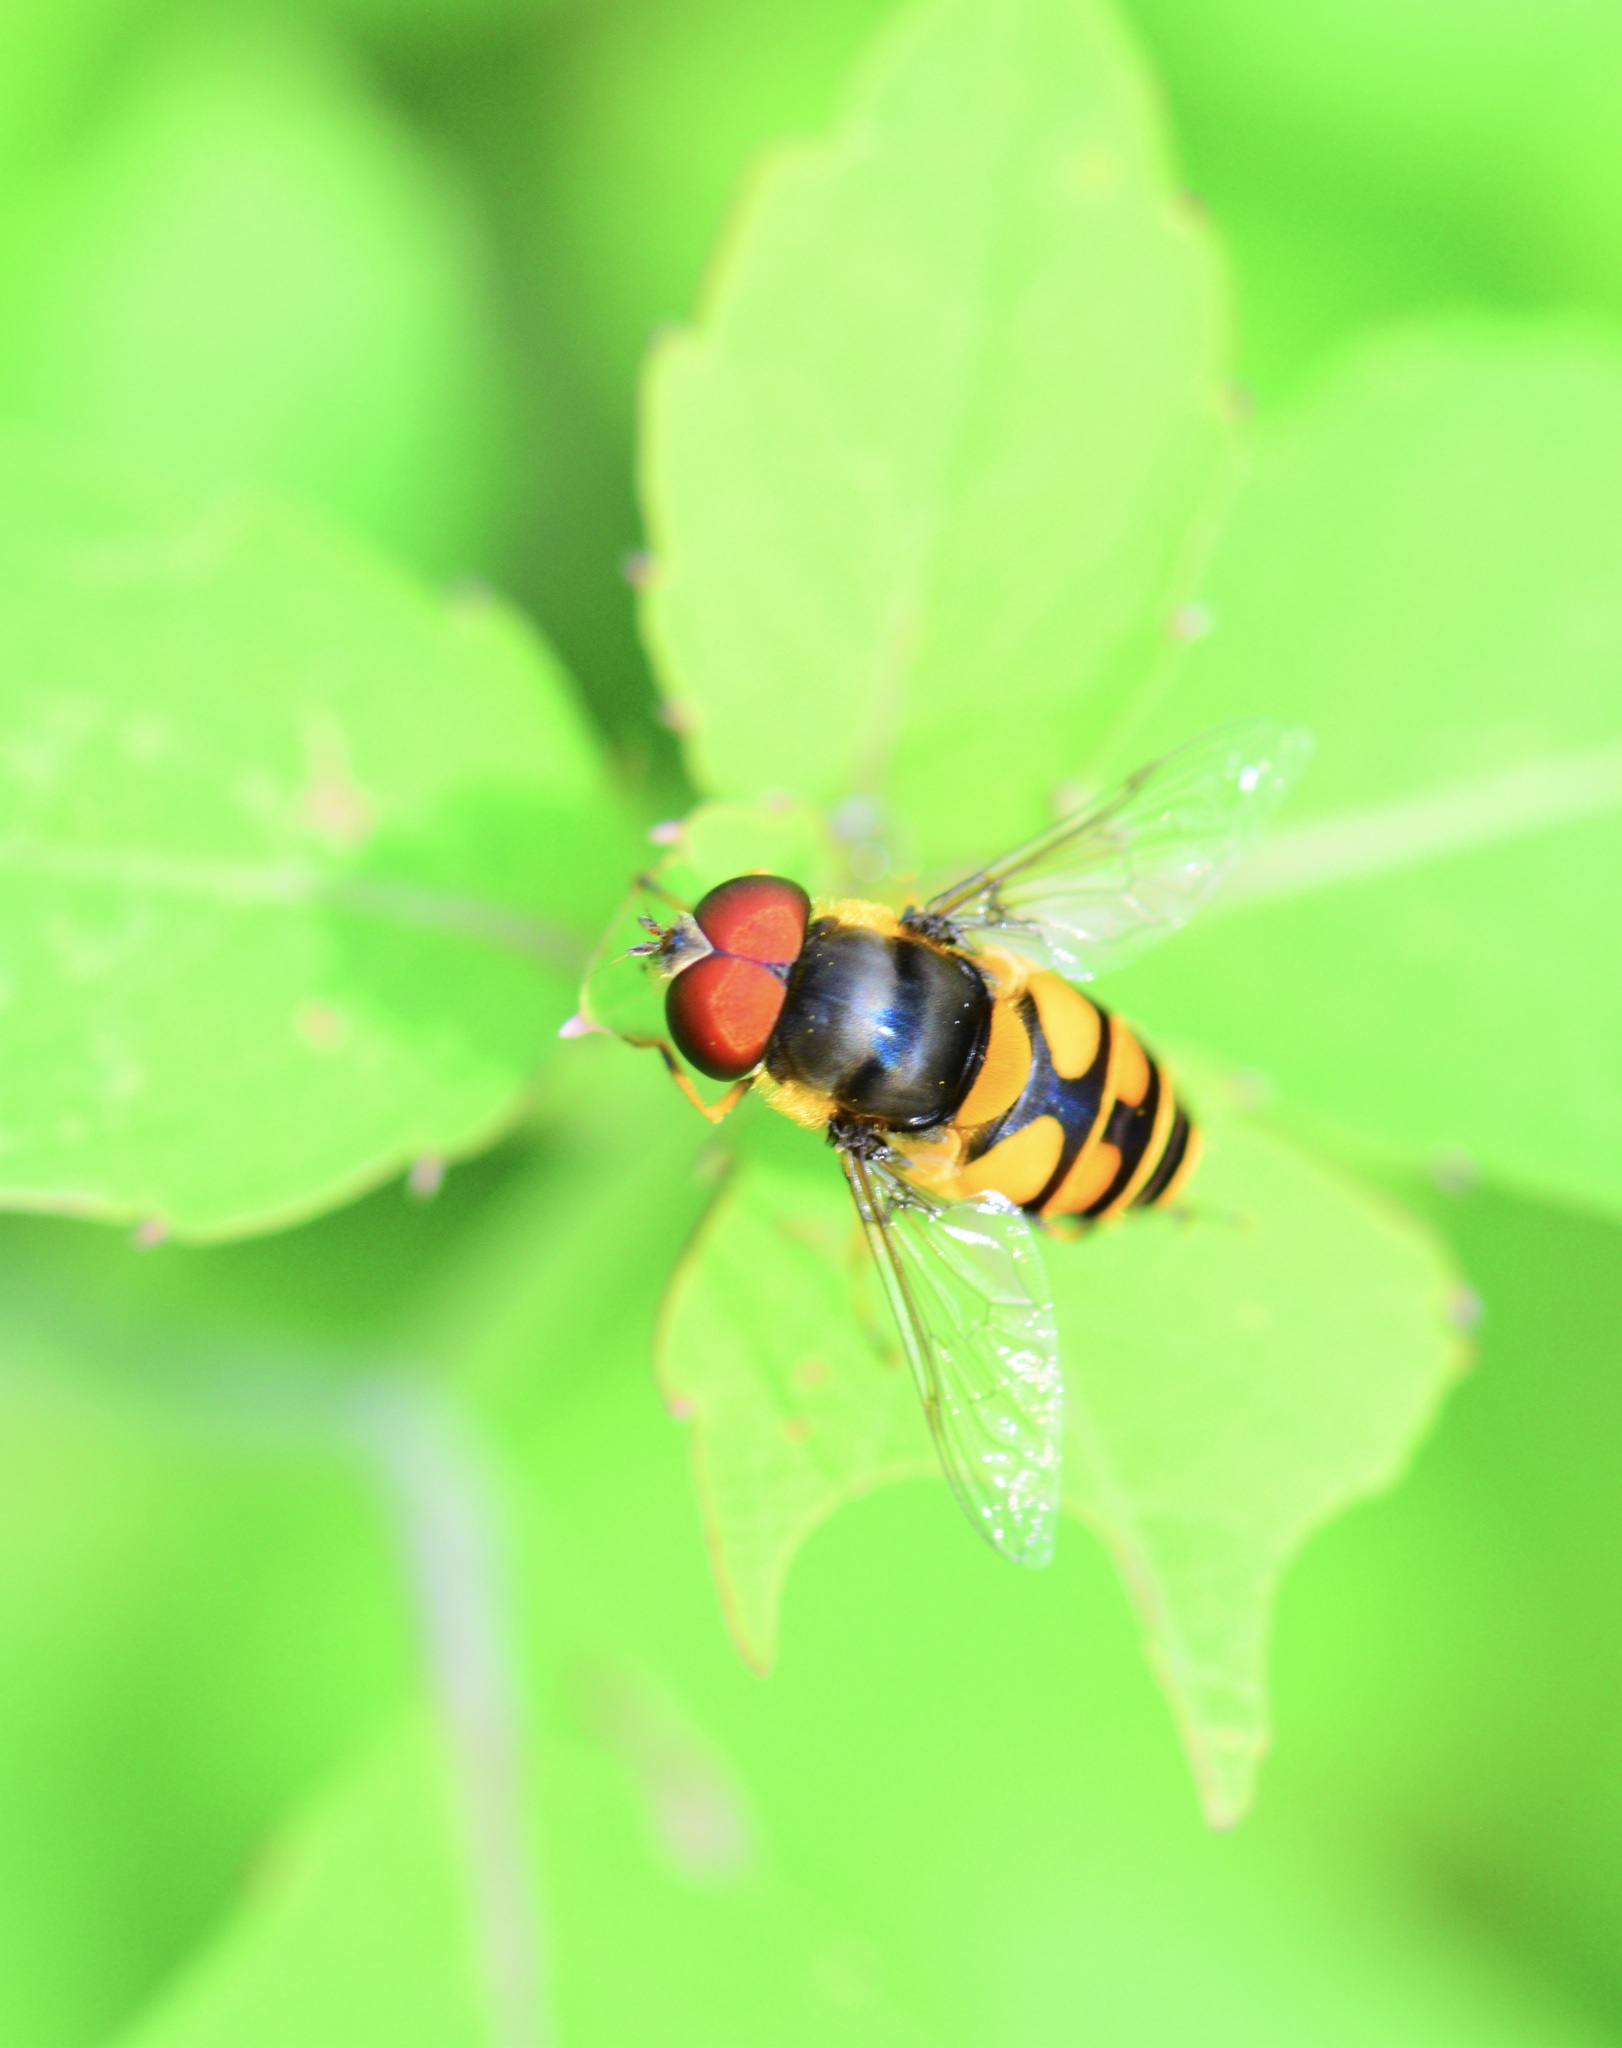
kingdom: Animalia
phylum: Arthropoda
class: Insecta
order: Diptera
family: Syrphidae
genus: Eristalis
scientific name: Eristalis transversa
